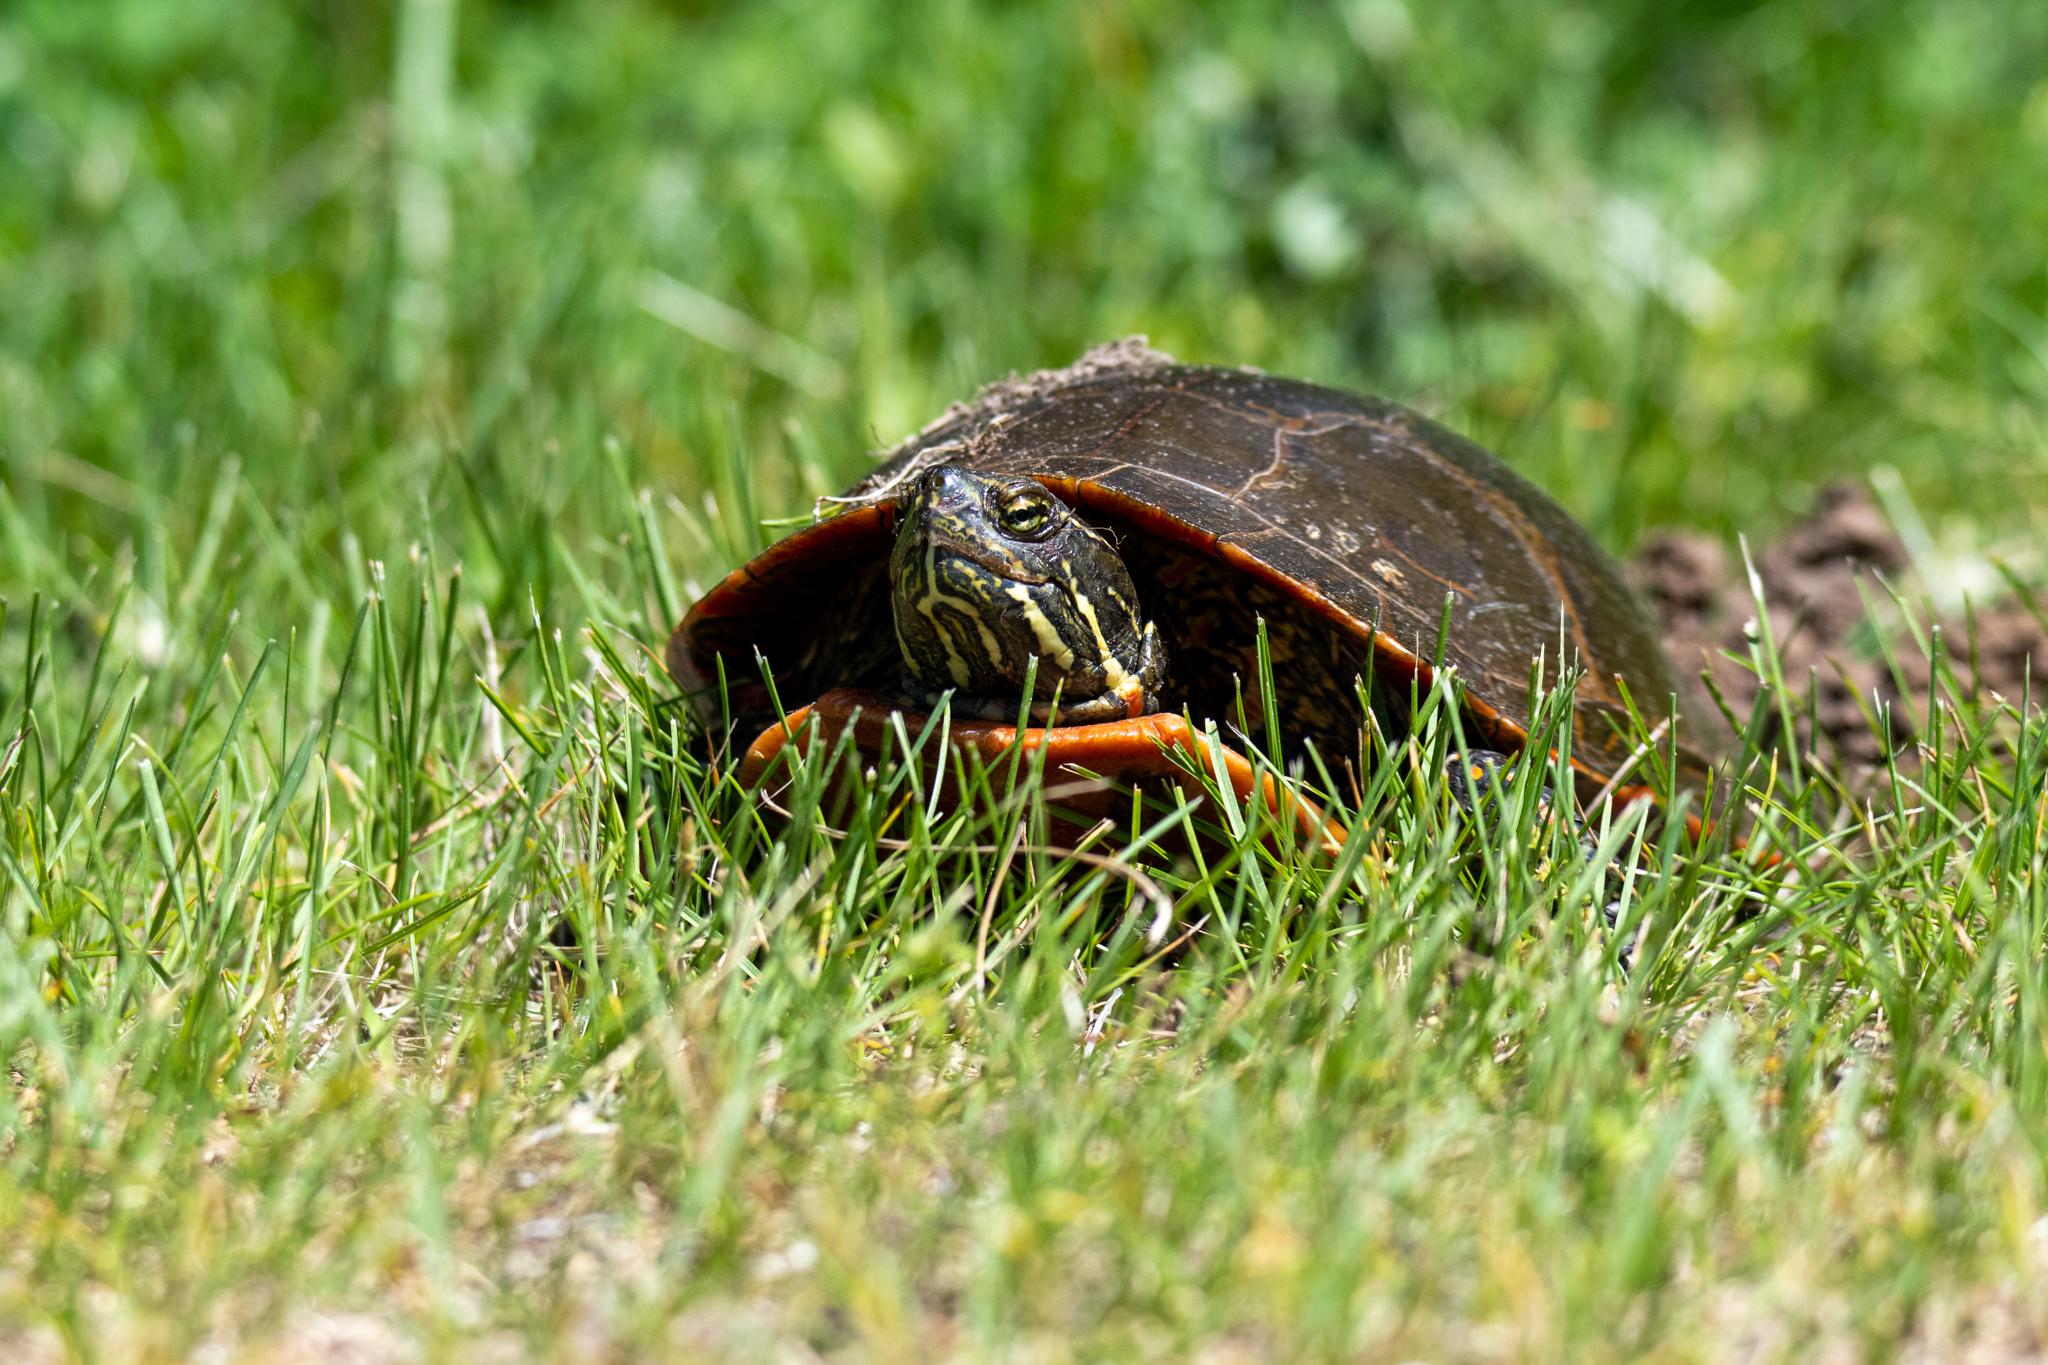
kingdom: Animalia
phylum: Chordata
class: Testudines
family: Emydidae
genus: Chrysemys
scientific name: Chrysemys picta
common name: Painted turtle
